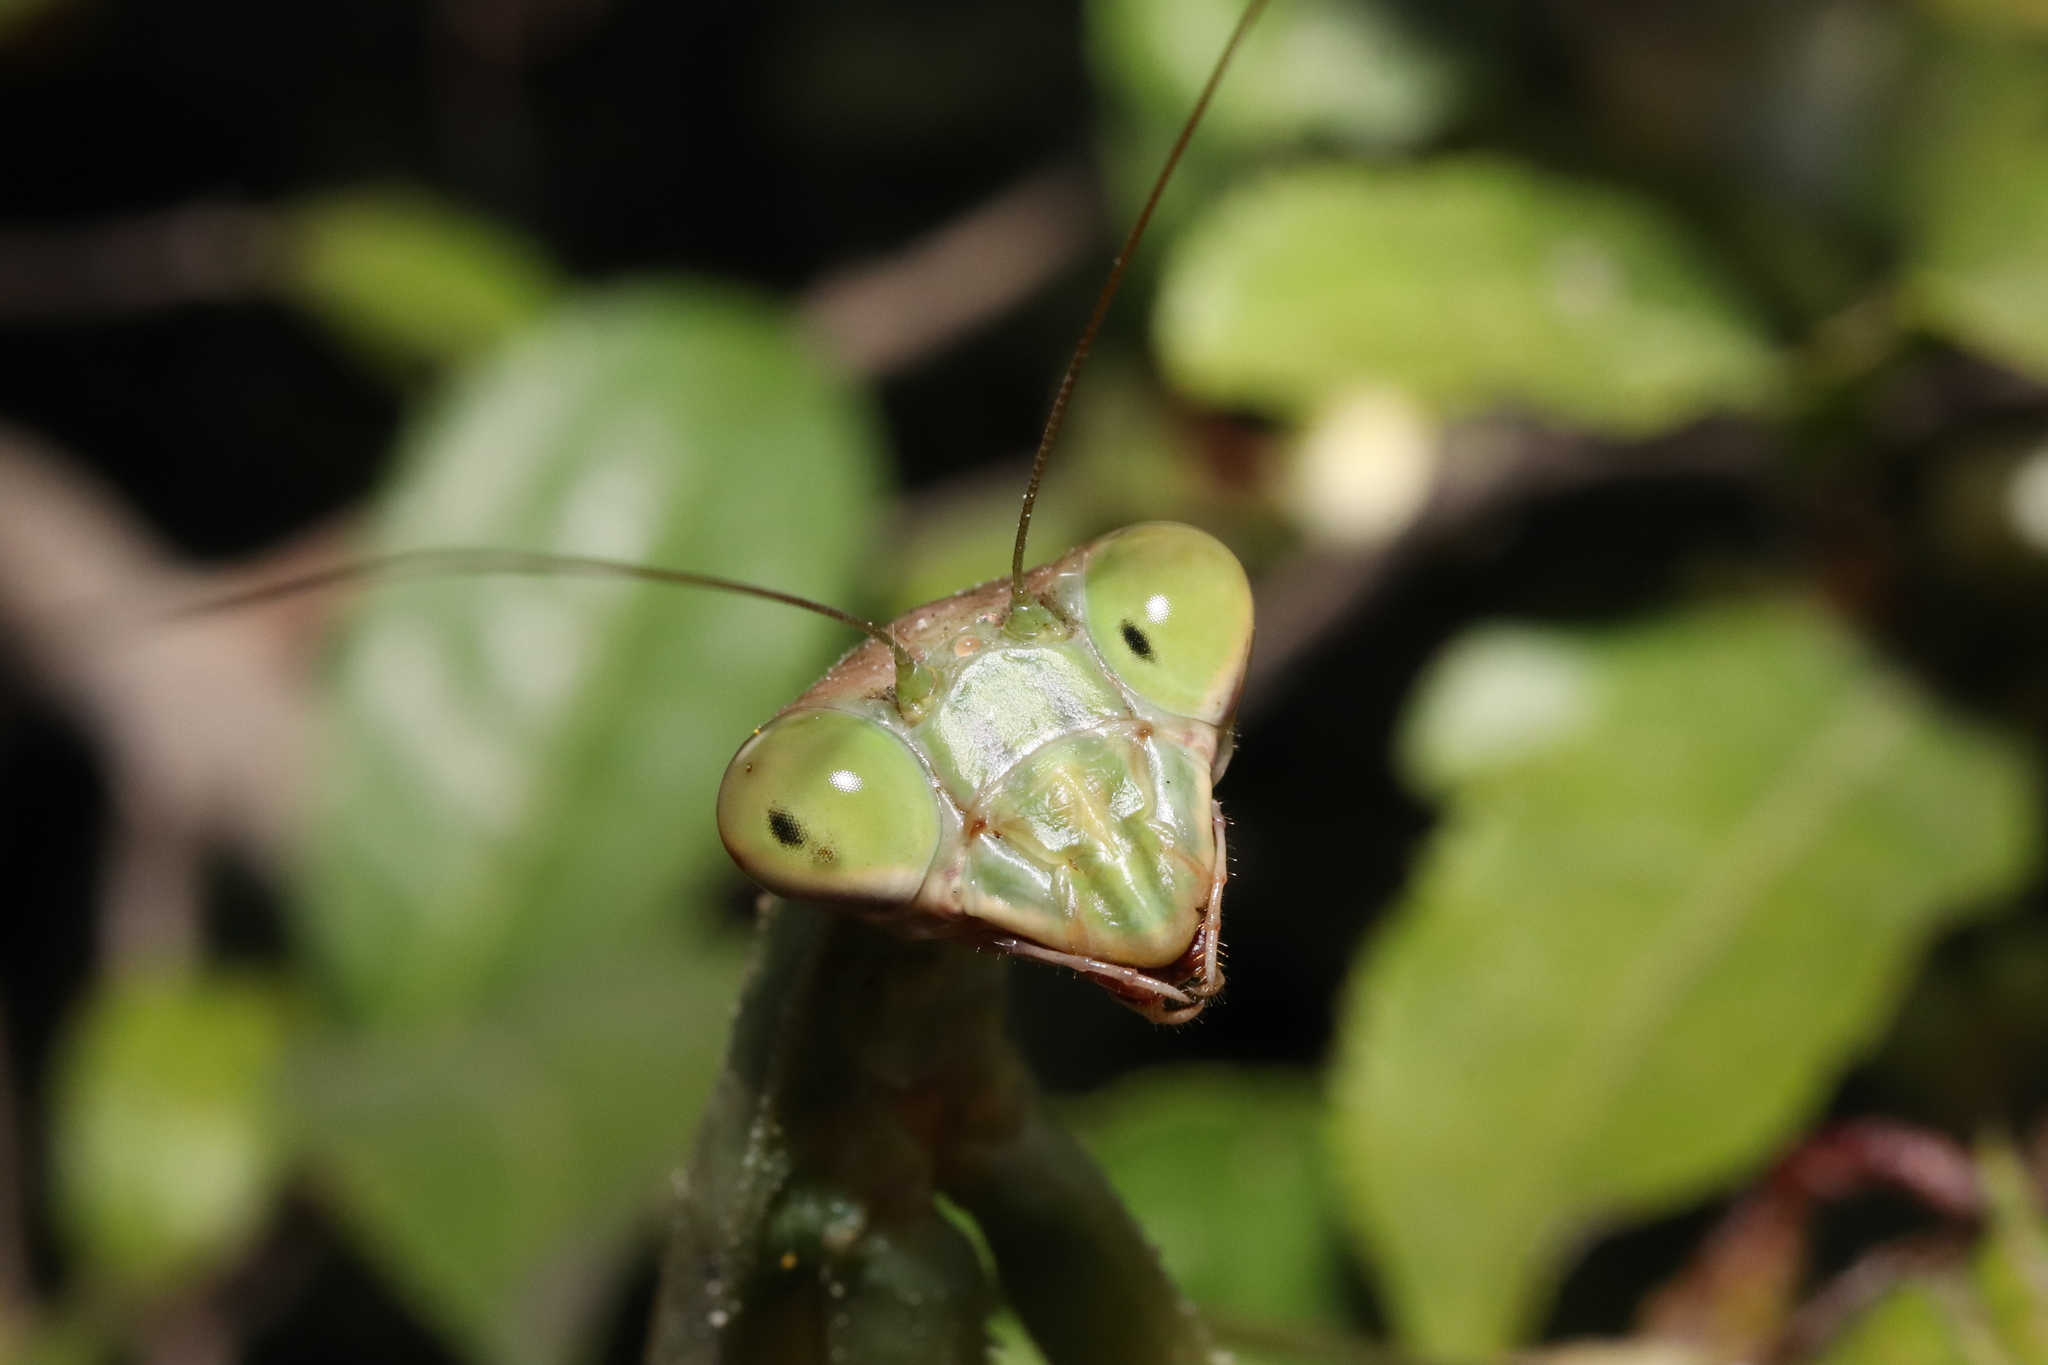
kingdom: Animalia
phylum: Arthropoda
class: Insecta
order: Mantodea
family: Mantidae
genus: Tenodera
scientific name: Tenodera sinensis
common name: Chinese mantis
